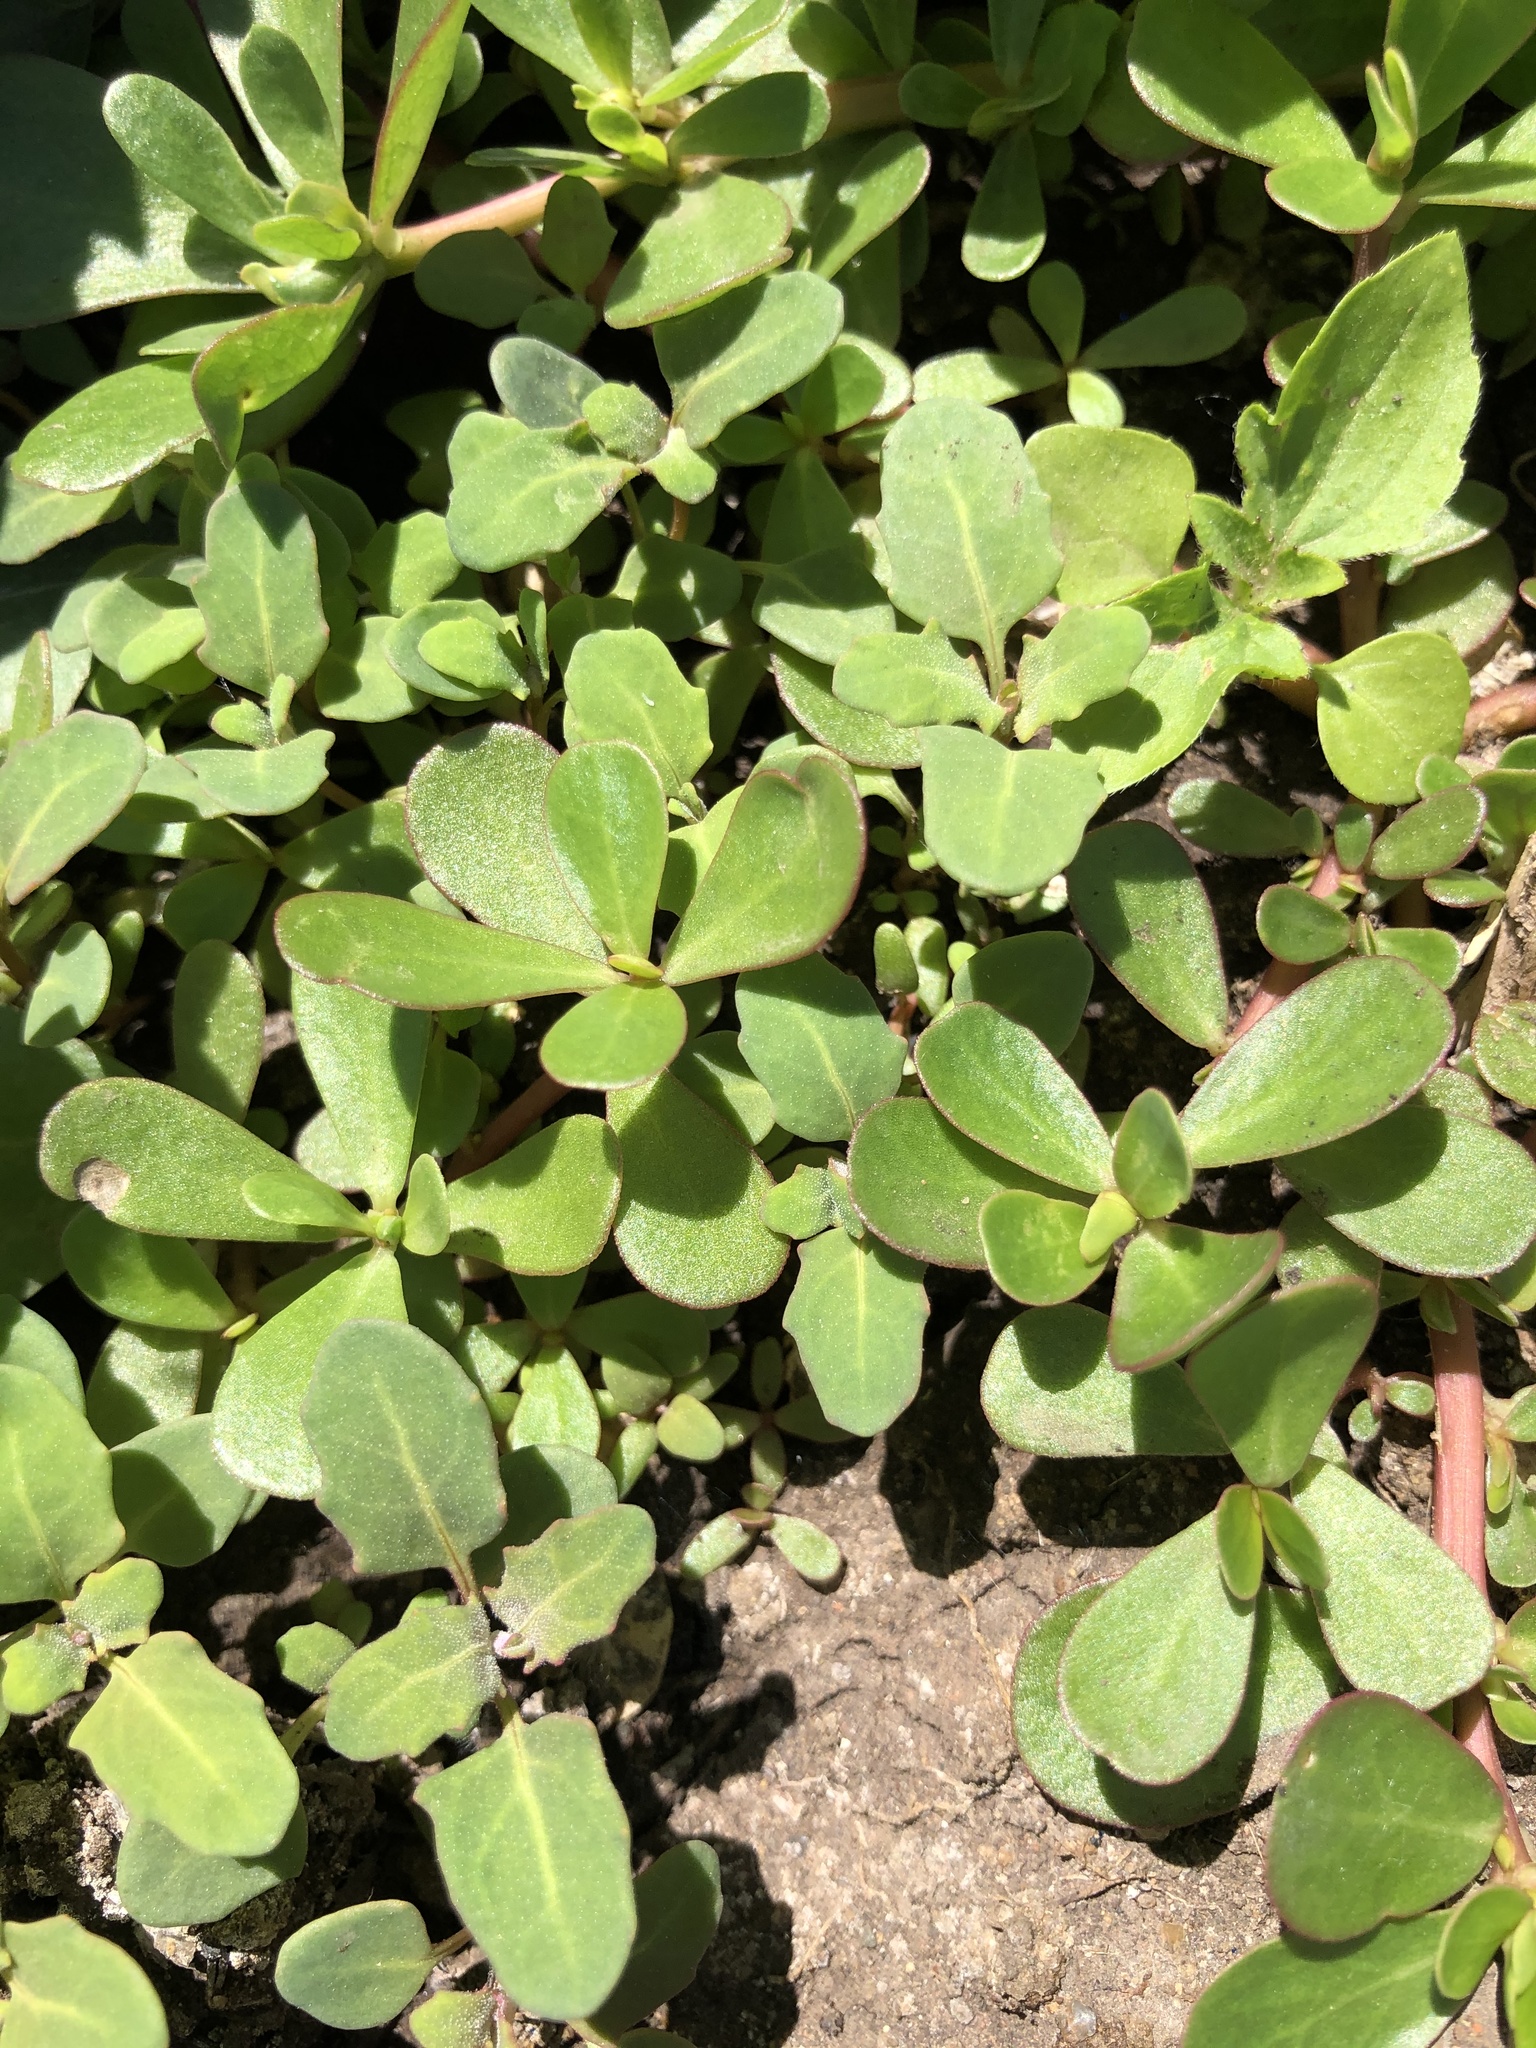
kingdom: Plantae
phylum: Tracheophyta
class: Magnoliopsida
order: Caryophyllales
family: Portulacaceae
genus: Portulaca
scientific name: Portulaca oleracea
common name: Common purslane
